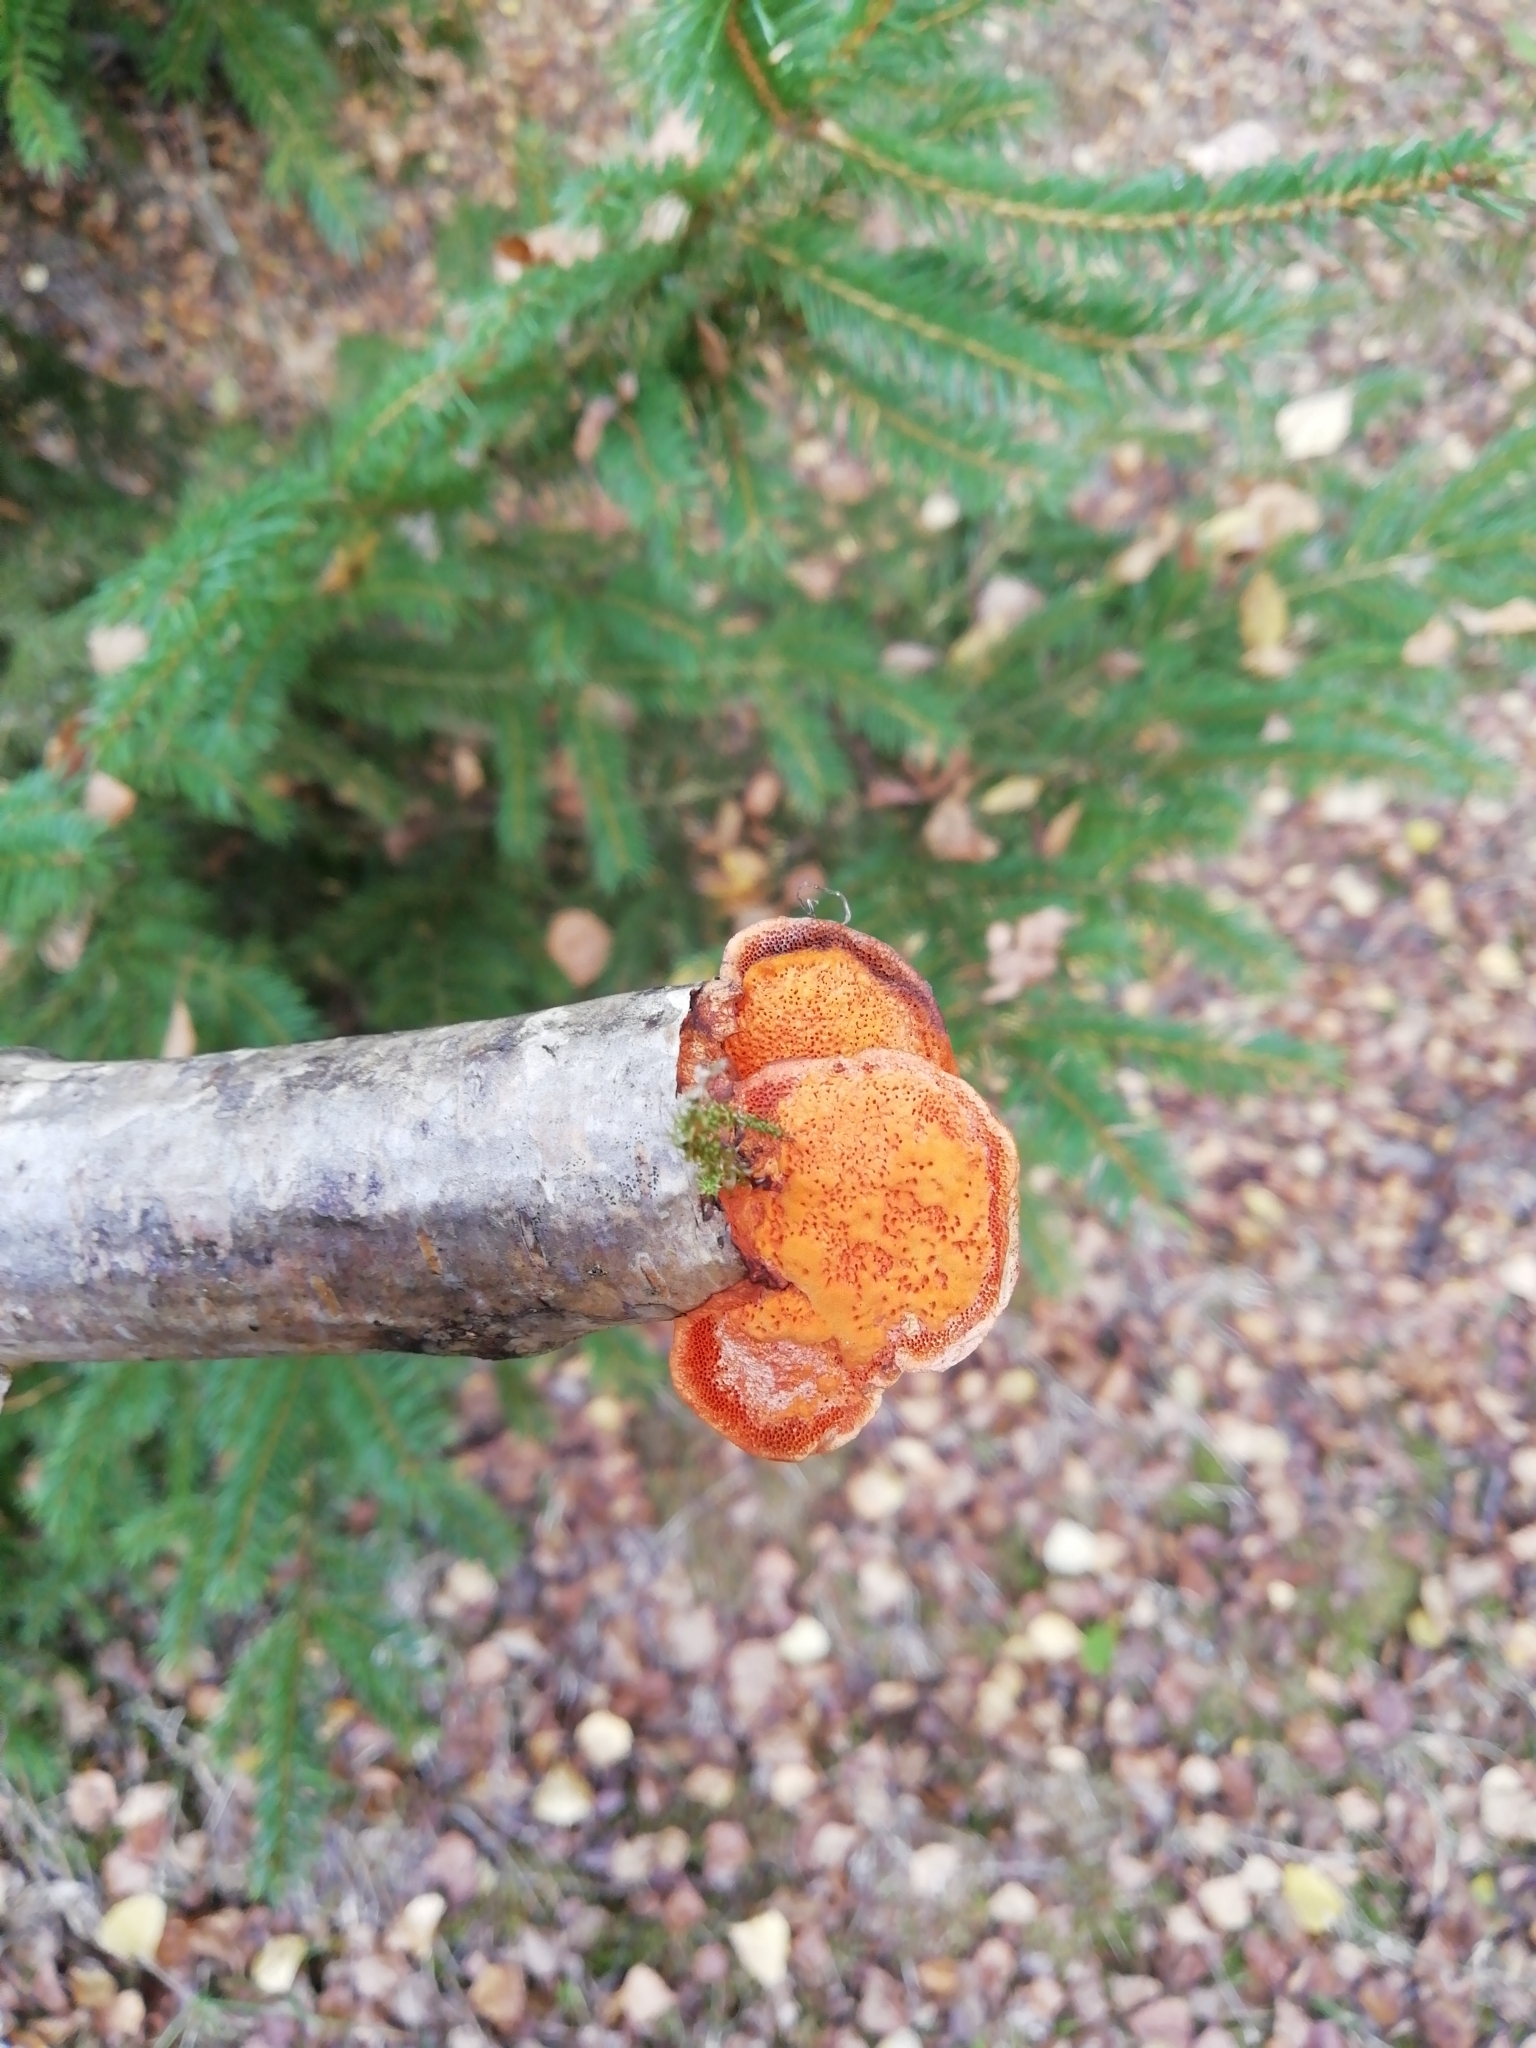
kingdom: Fungi
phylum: Basidiomycota
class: Agaricomycetes
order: Polyporales
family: Polyporaceae
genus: Trametes
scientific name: Trametes cinnabarina
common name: Northern cinnabar polypore
